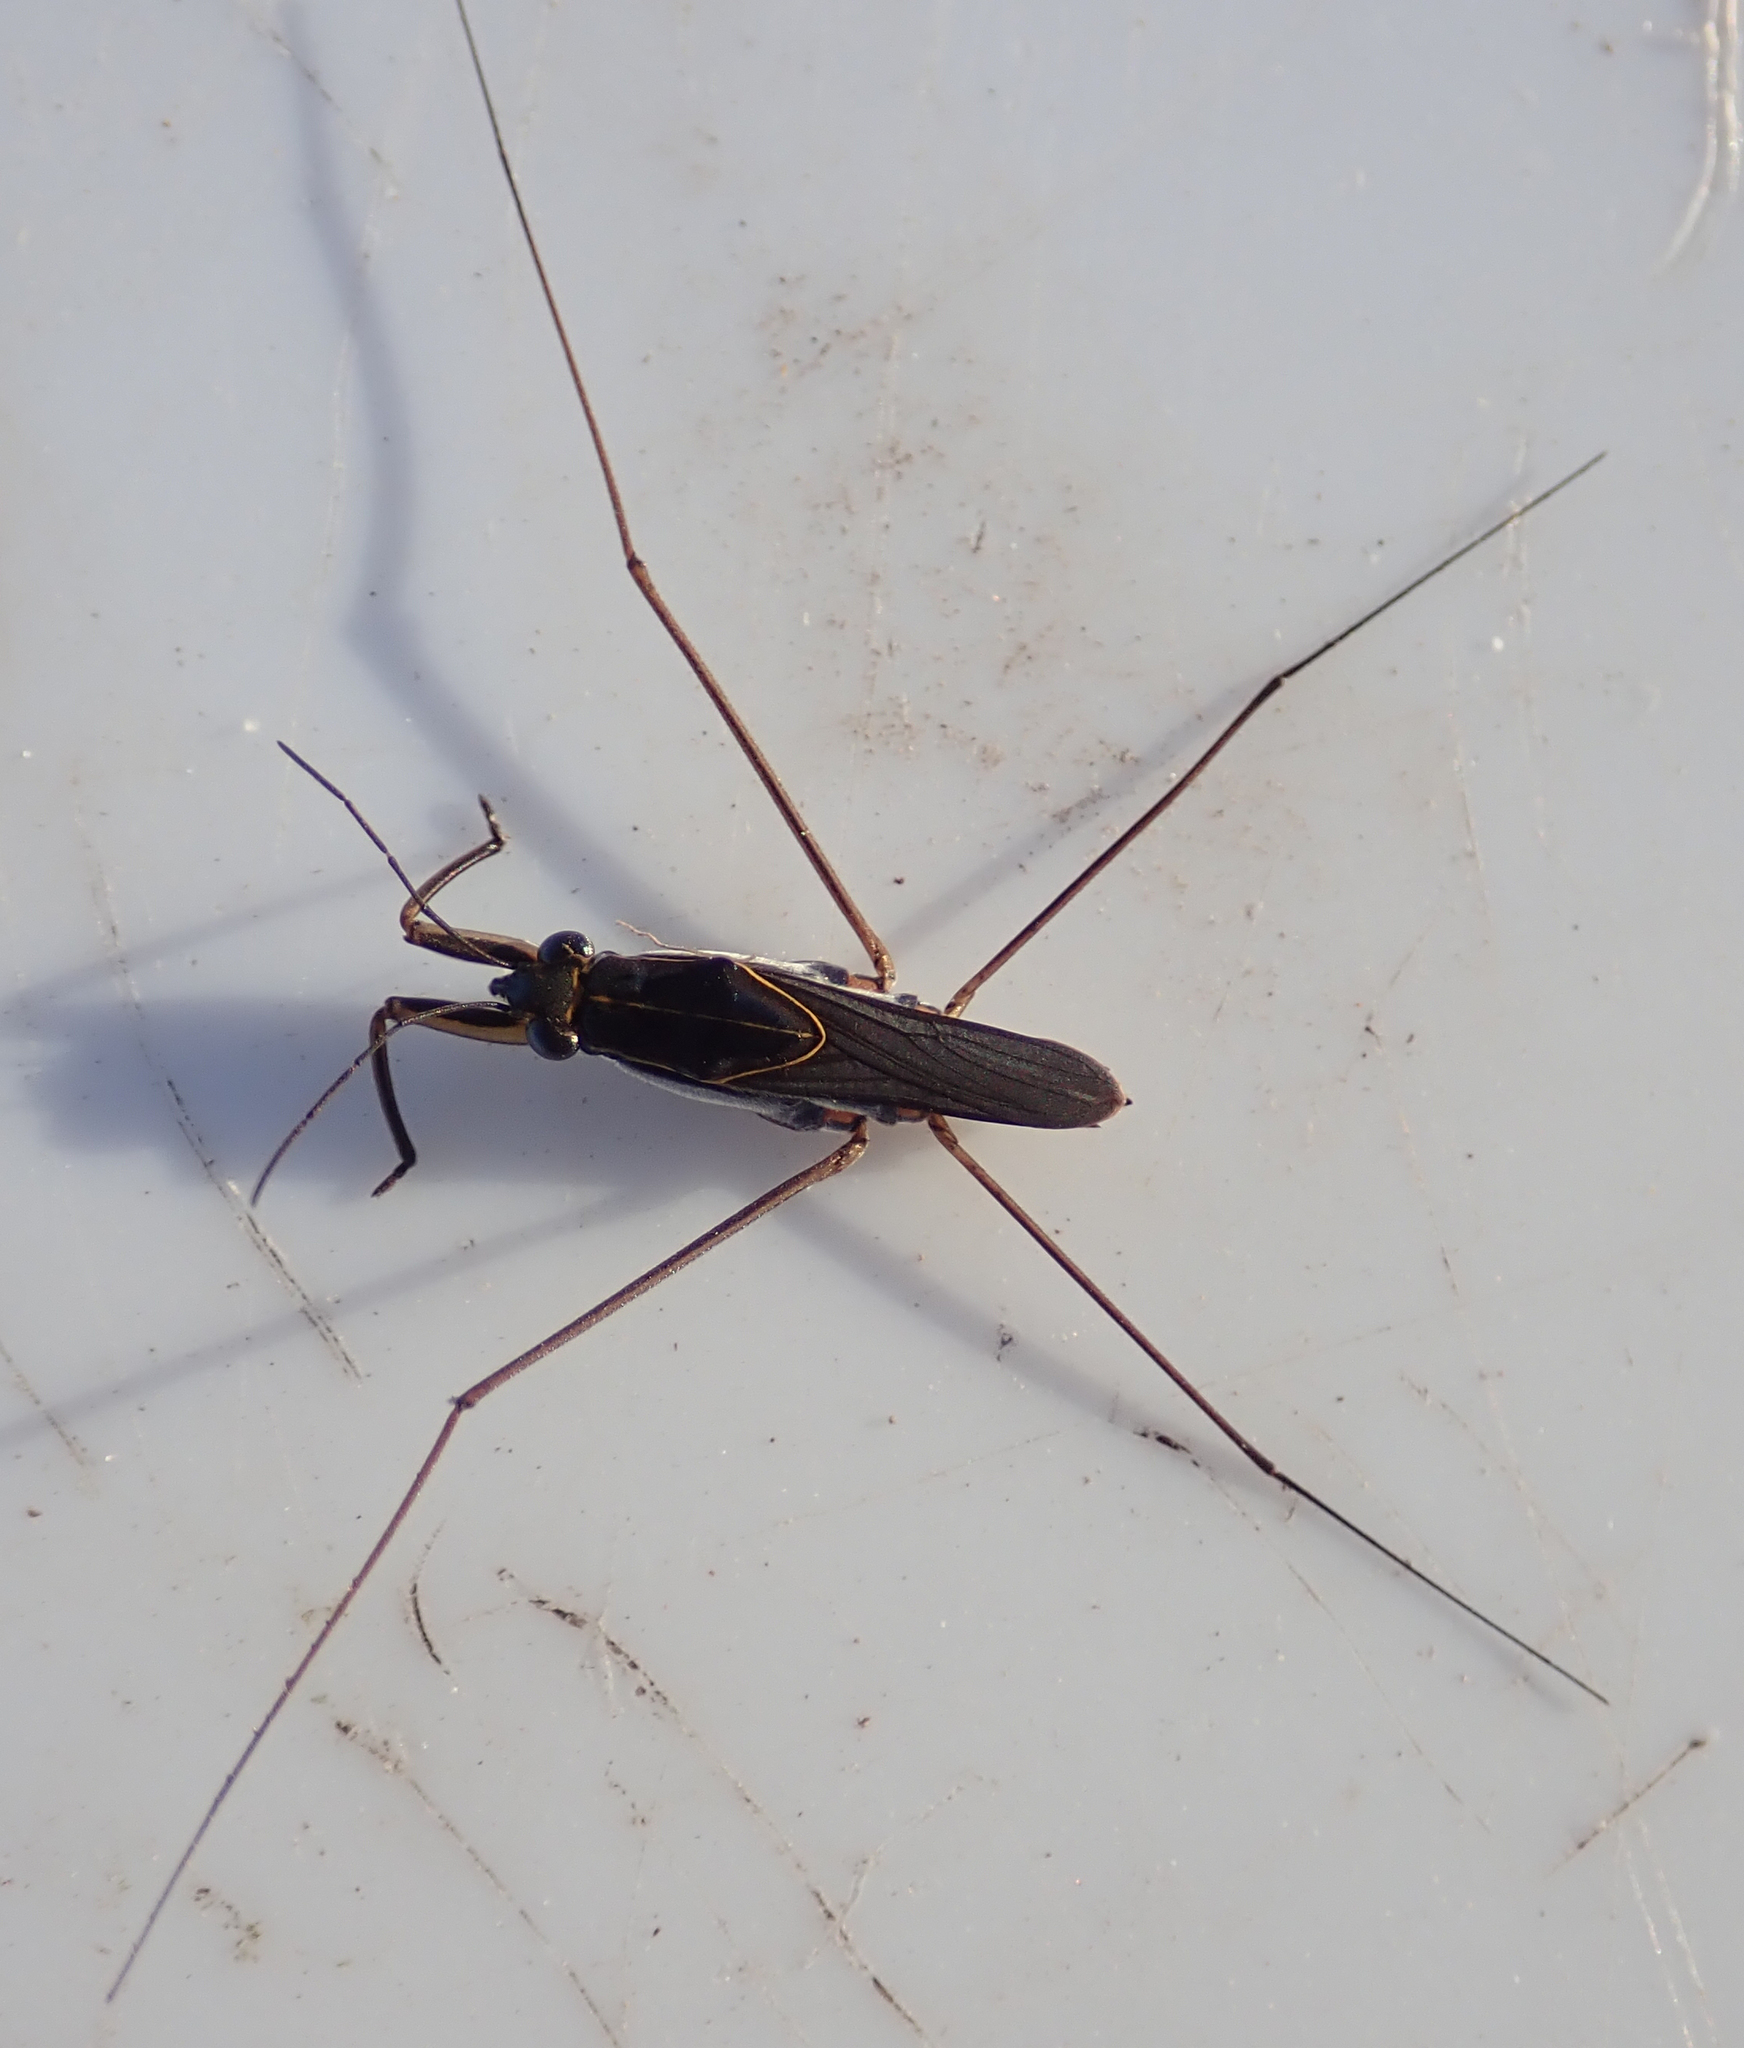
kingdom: Animalia
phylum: Arthropoda
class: Insecta
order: Hemiptera
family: Gerridae
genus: Limnogonus
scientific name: Limnogonus
